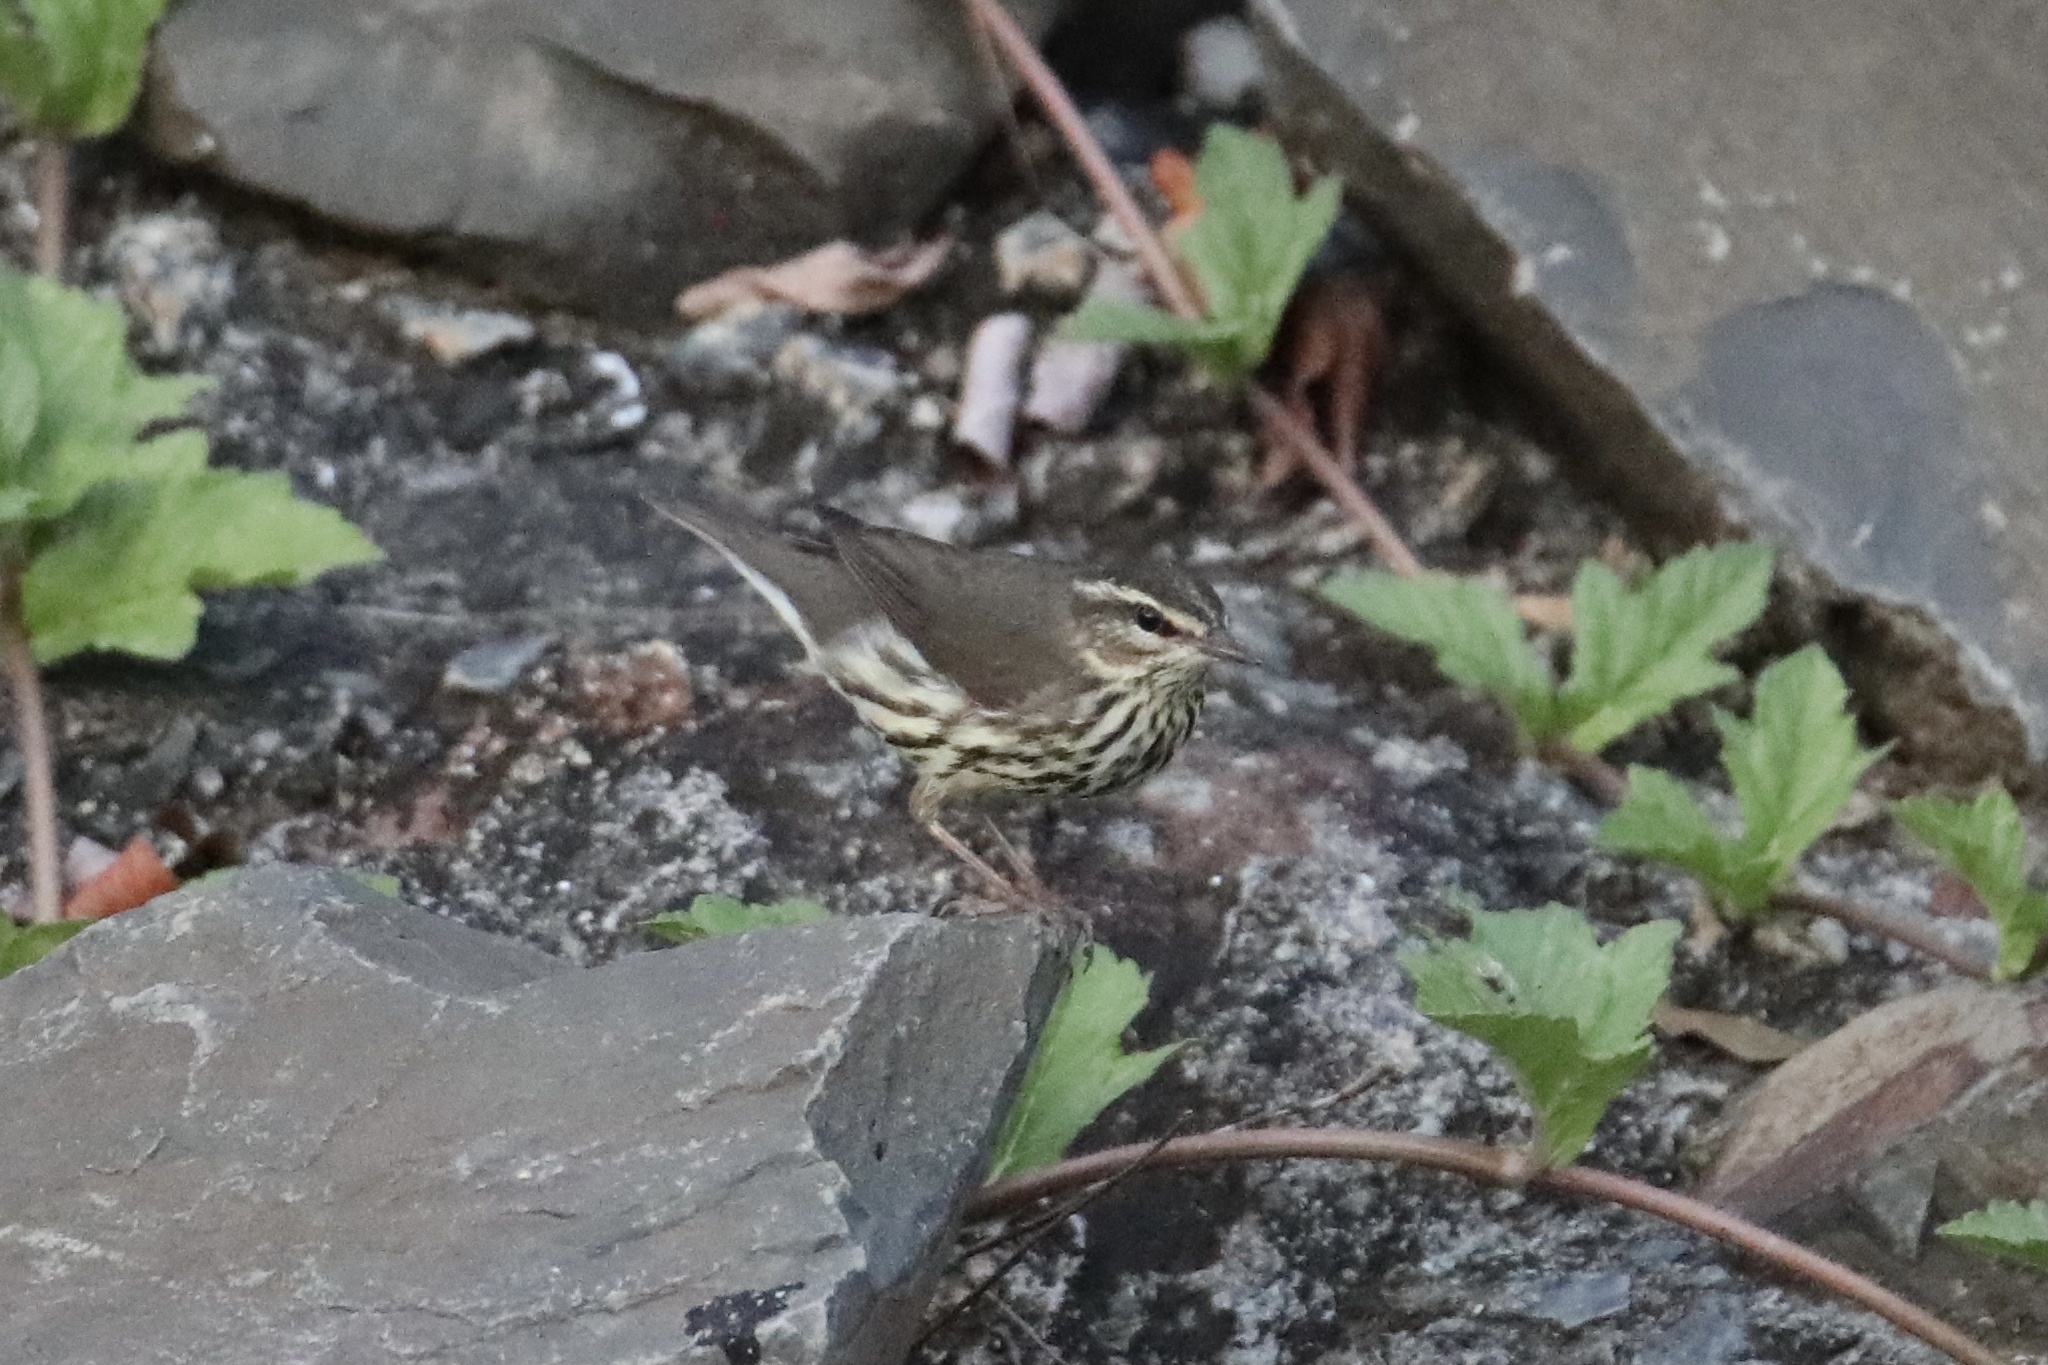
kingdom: Animalia
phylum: Chordata
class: Aves
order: Passeriformes
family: Parulidae
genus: Parkesia
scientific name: Parkesia noveboracensis
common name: Northern waterthrush
